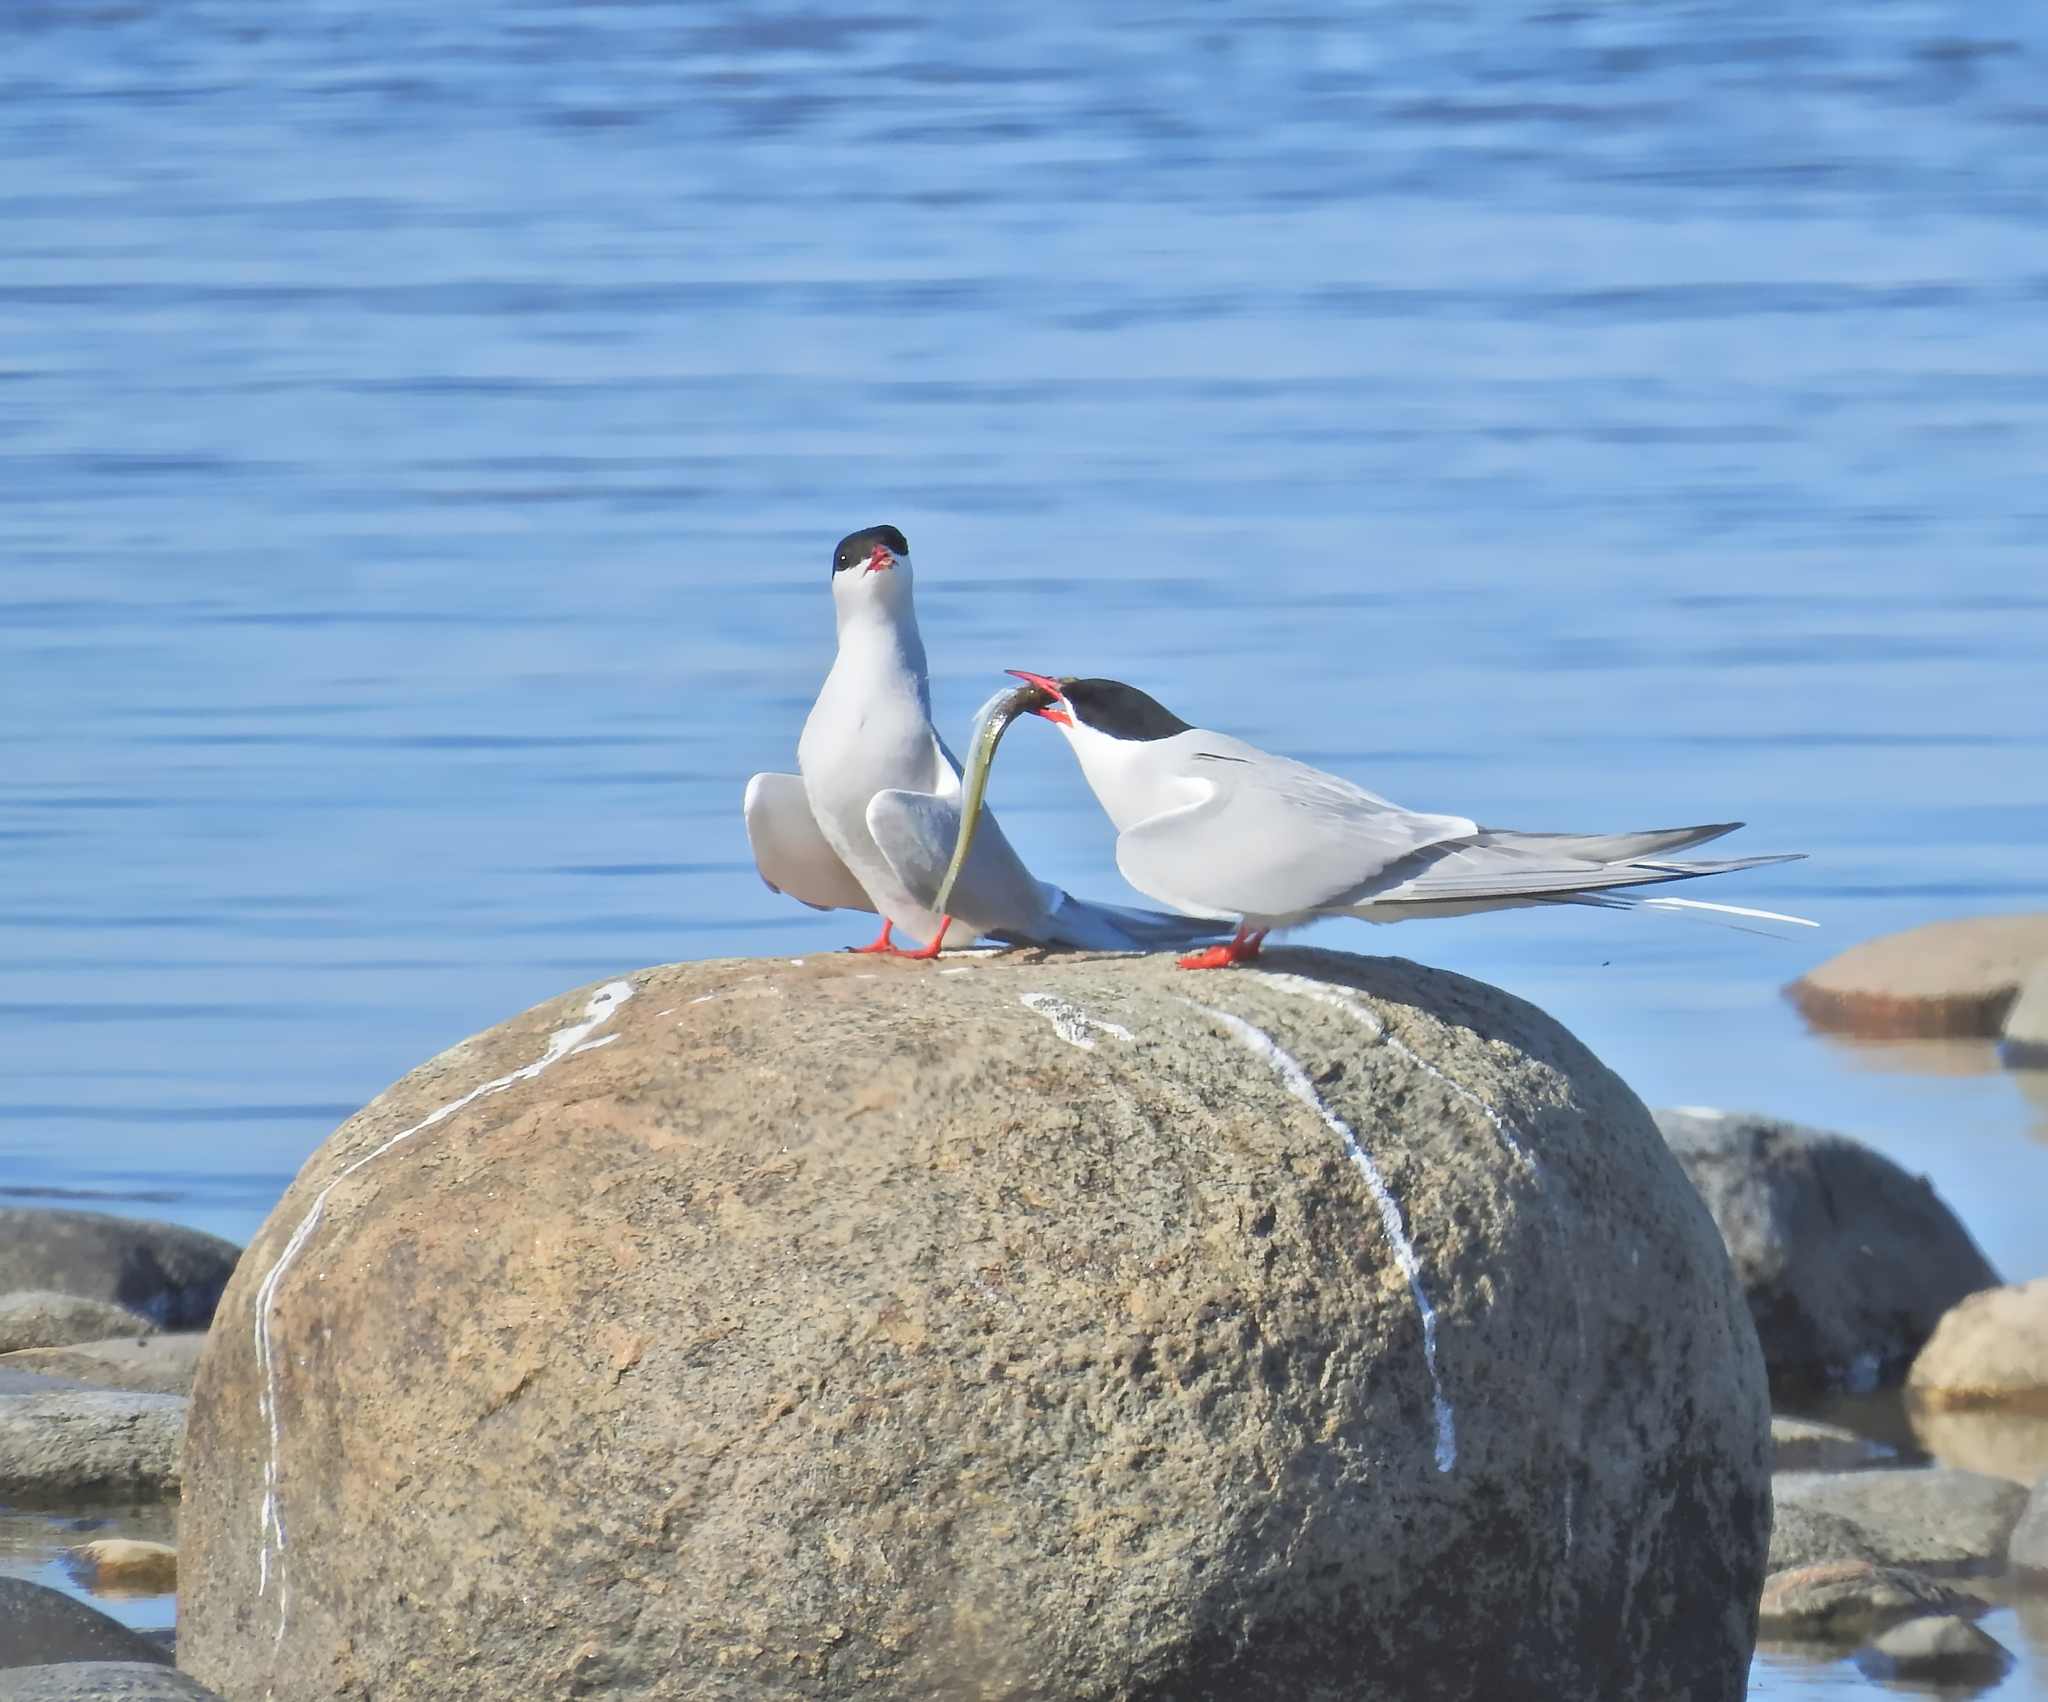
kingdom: Animalia
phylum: Chordata
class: Aves
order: Charadriiformes
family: Laridae
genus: Sterna
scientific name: Sterna paradisaea
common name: Arctic tern
